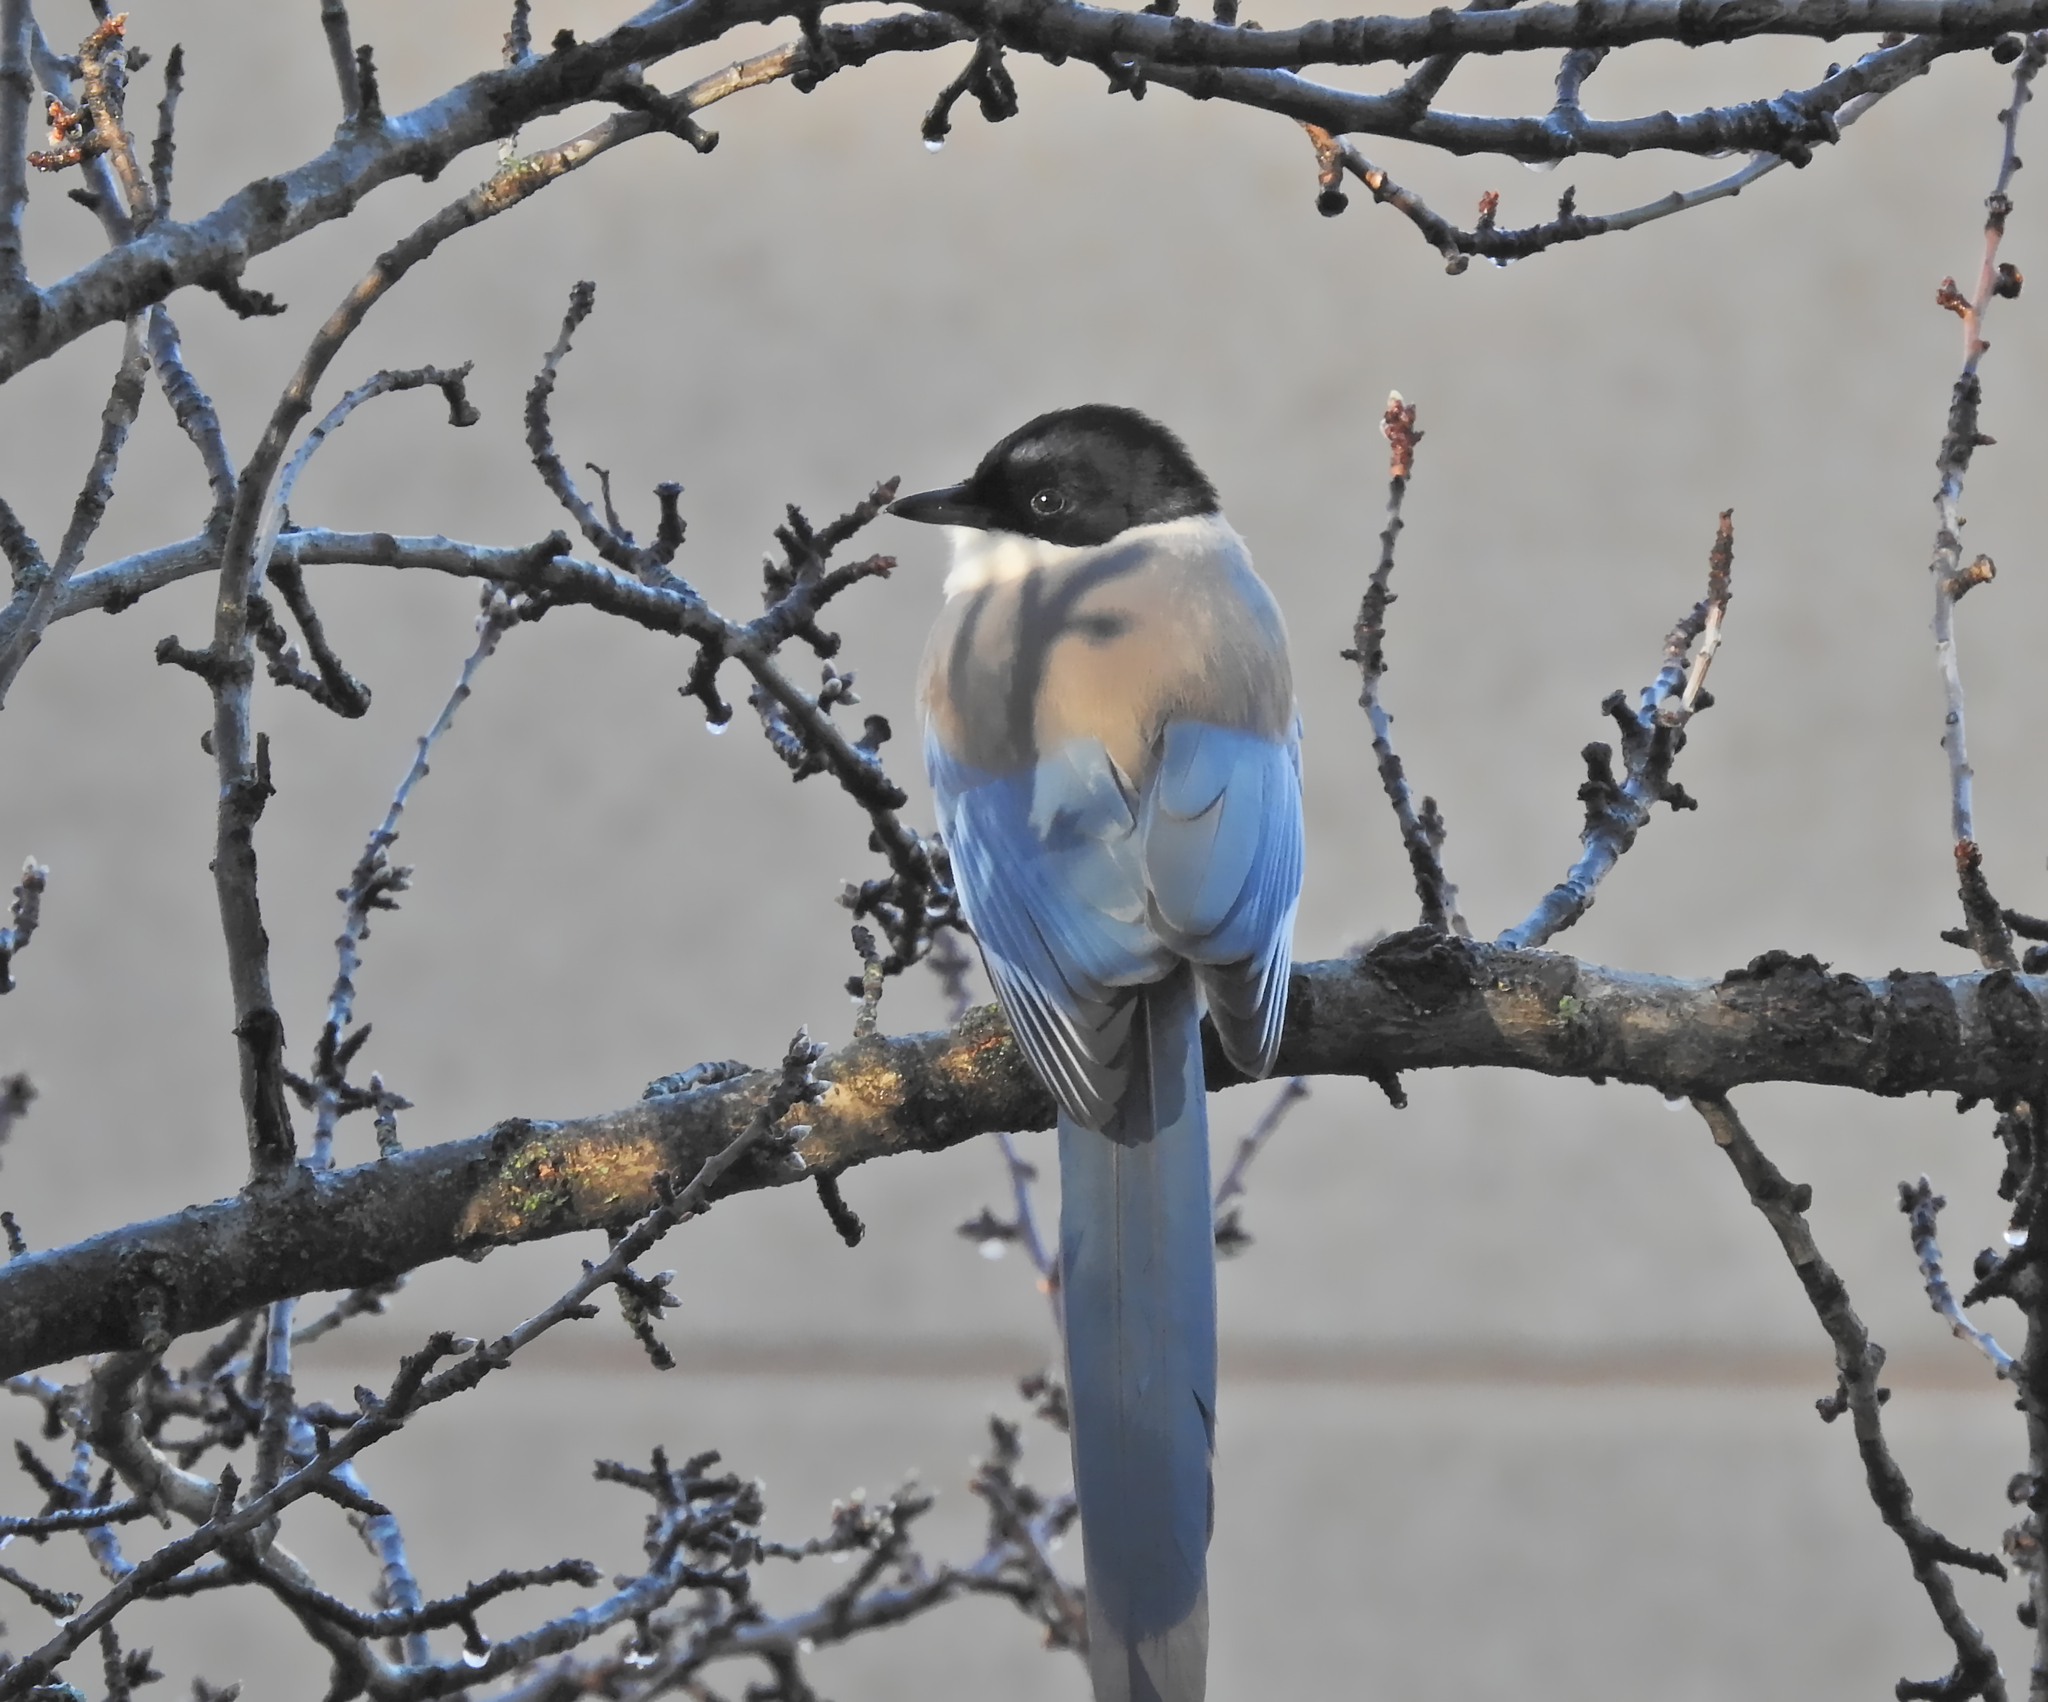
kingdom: Animalia
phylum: Chordata
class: Aves
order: Passeriformes
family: Corvidae
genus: Cyanopica
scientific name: Cyanopica cooki
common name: Iberian magpie
